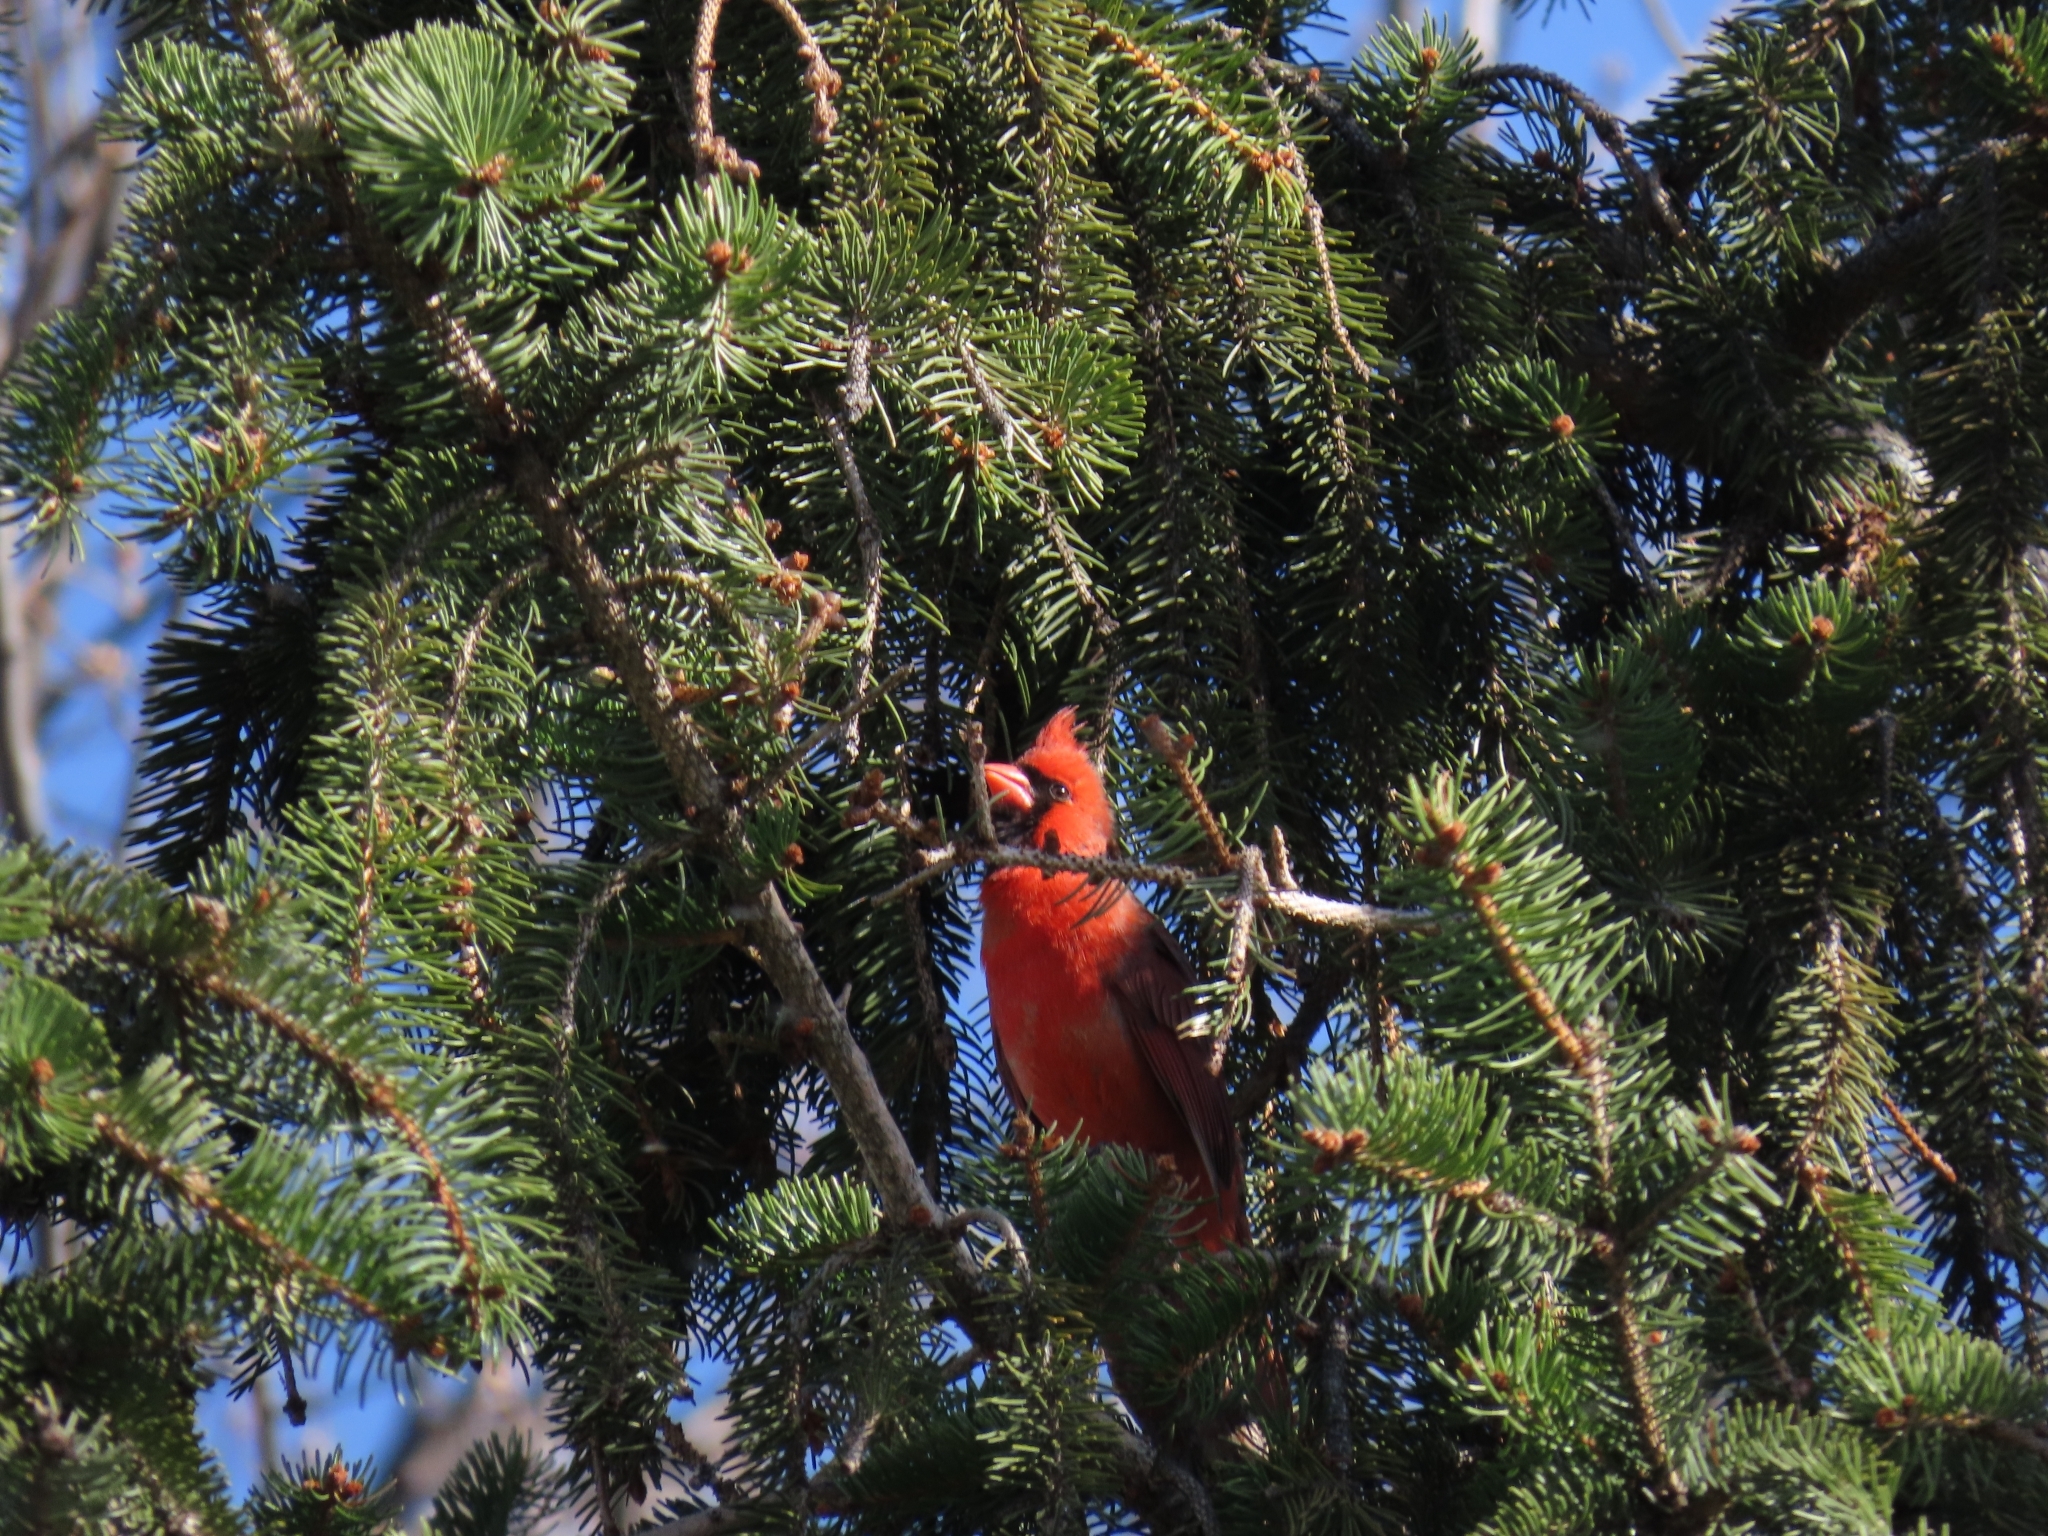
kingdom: Animalia
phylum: Chordata
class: Aves
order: Passeriformes
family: Cardinalidae
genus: Cardinalis
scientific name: Cardinalis cardinalis
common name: Northern cardinal
